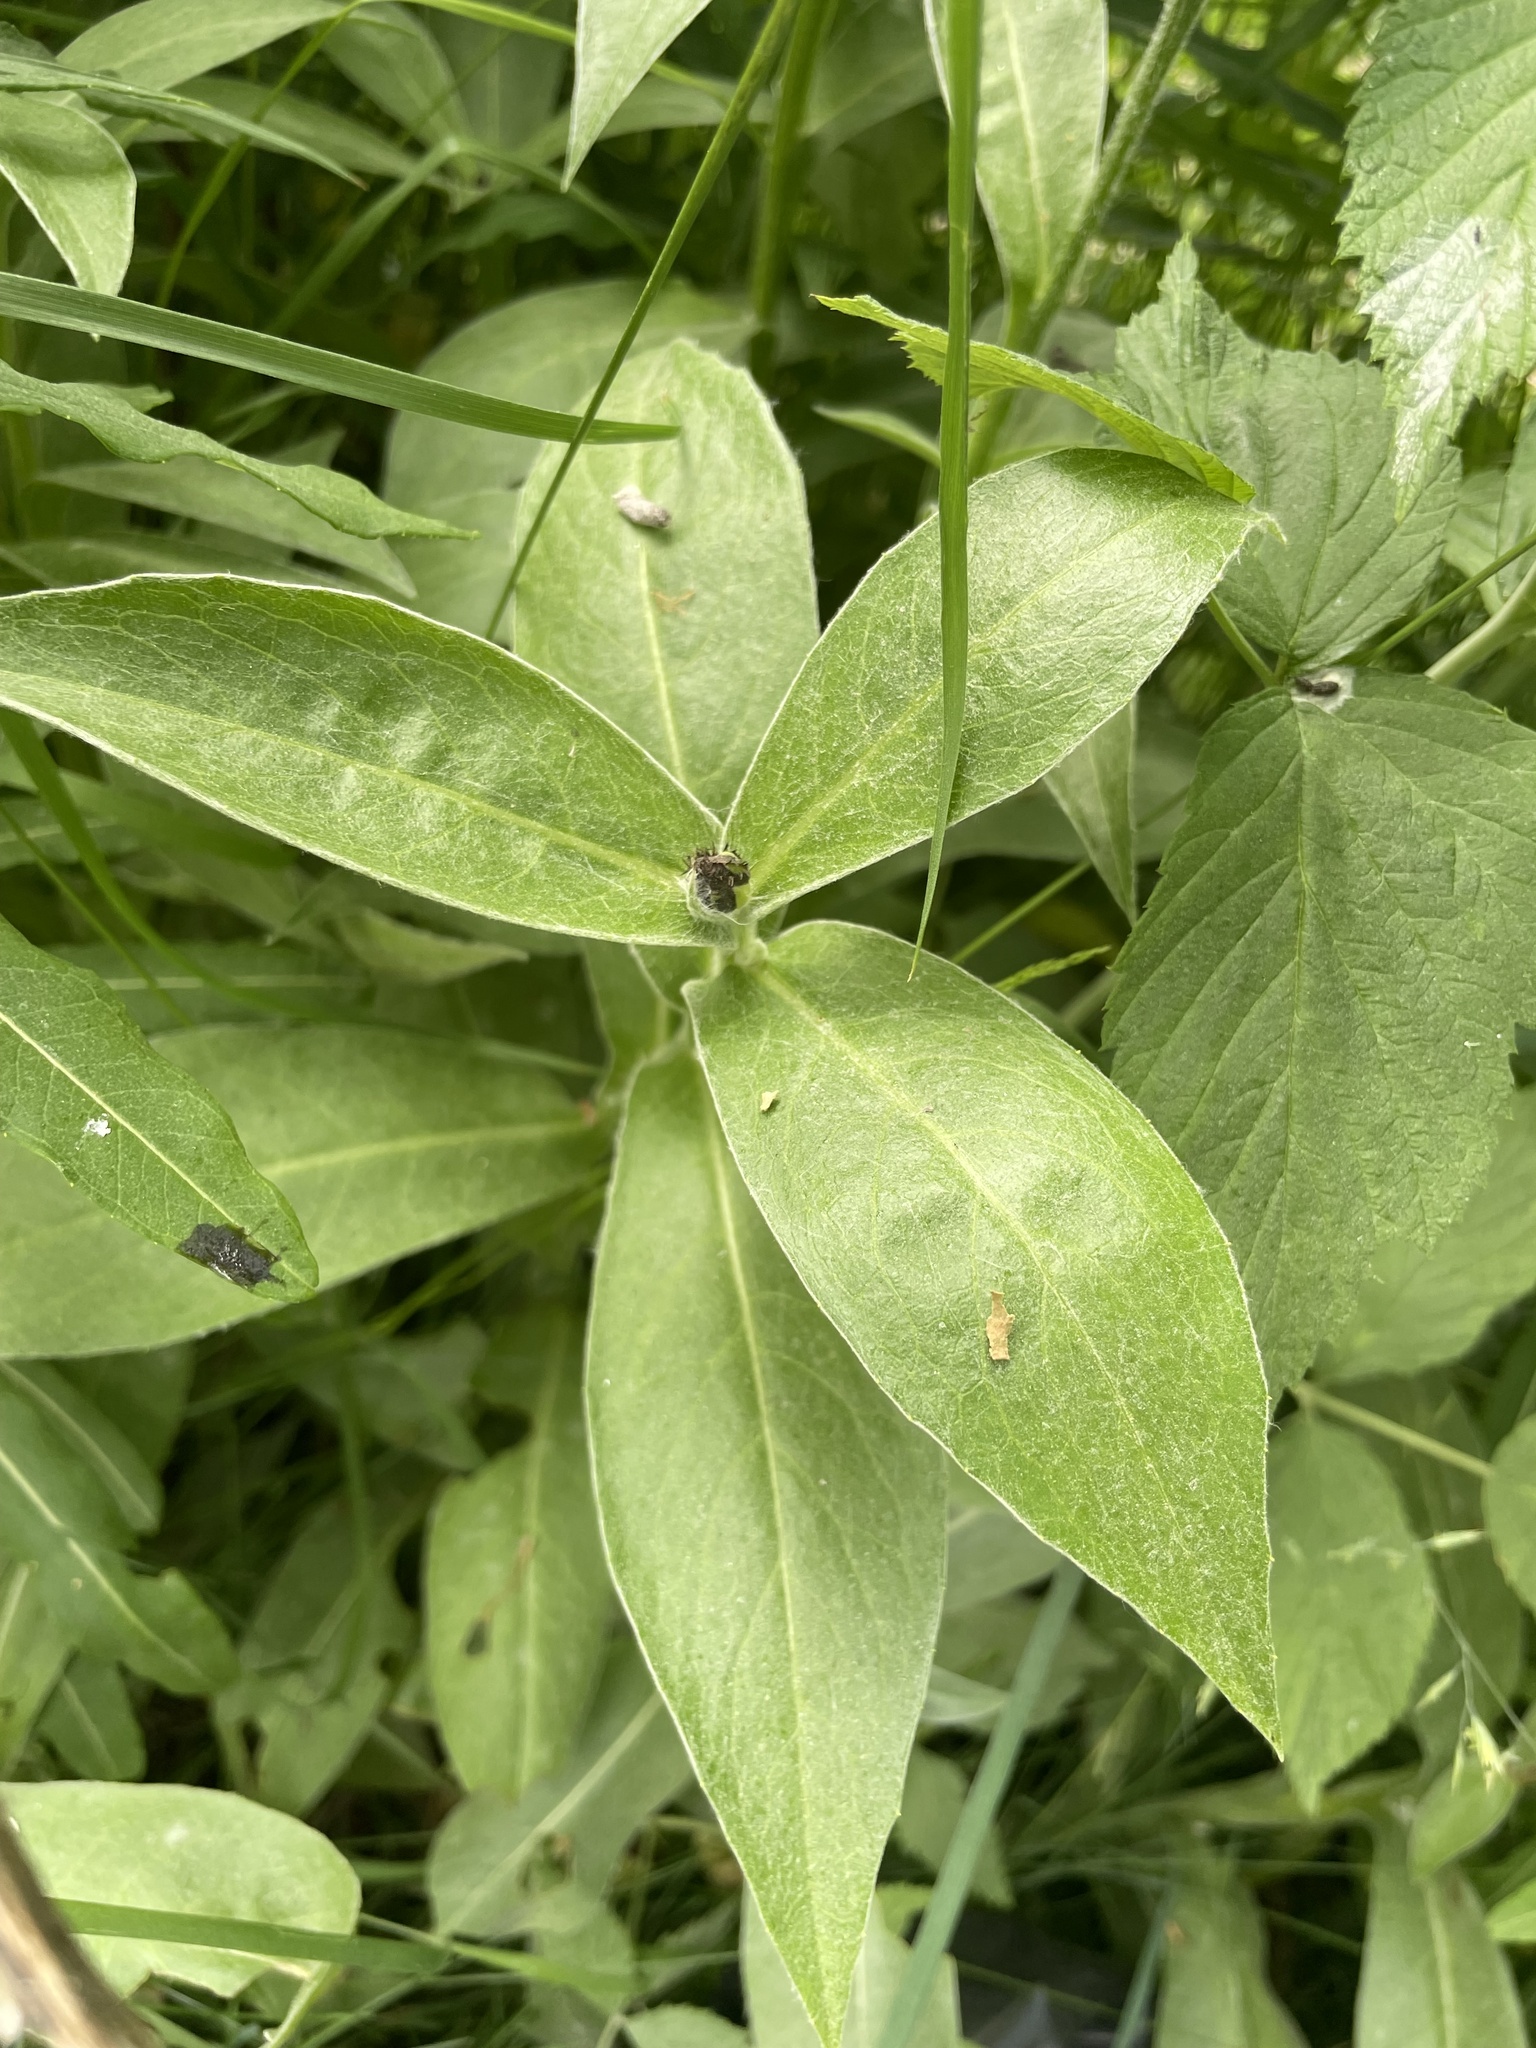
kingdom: Plantae
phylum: Tracheophyta
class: Magnoliopsida
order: Asterales
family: Asteraceae
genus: Centaurea
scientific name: Centaurea montana
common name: Perennial cornflower
